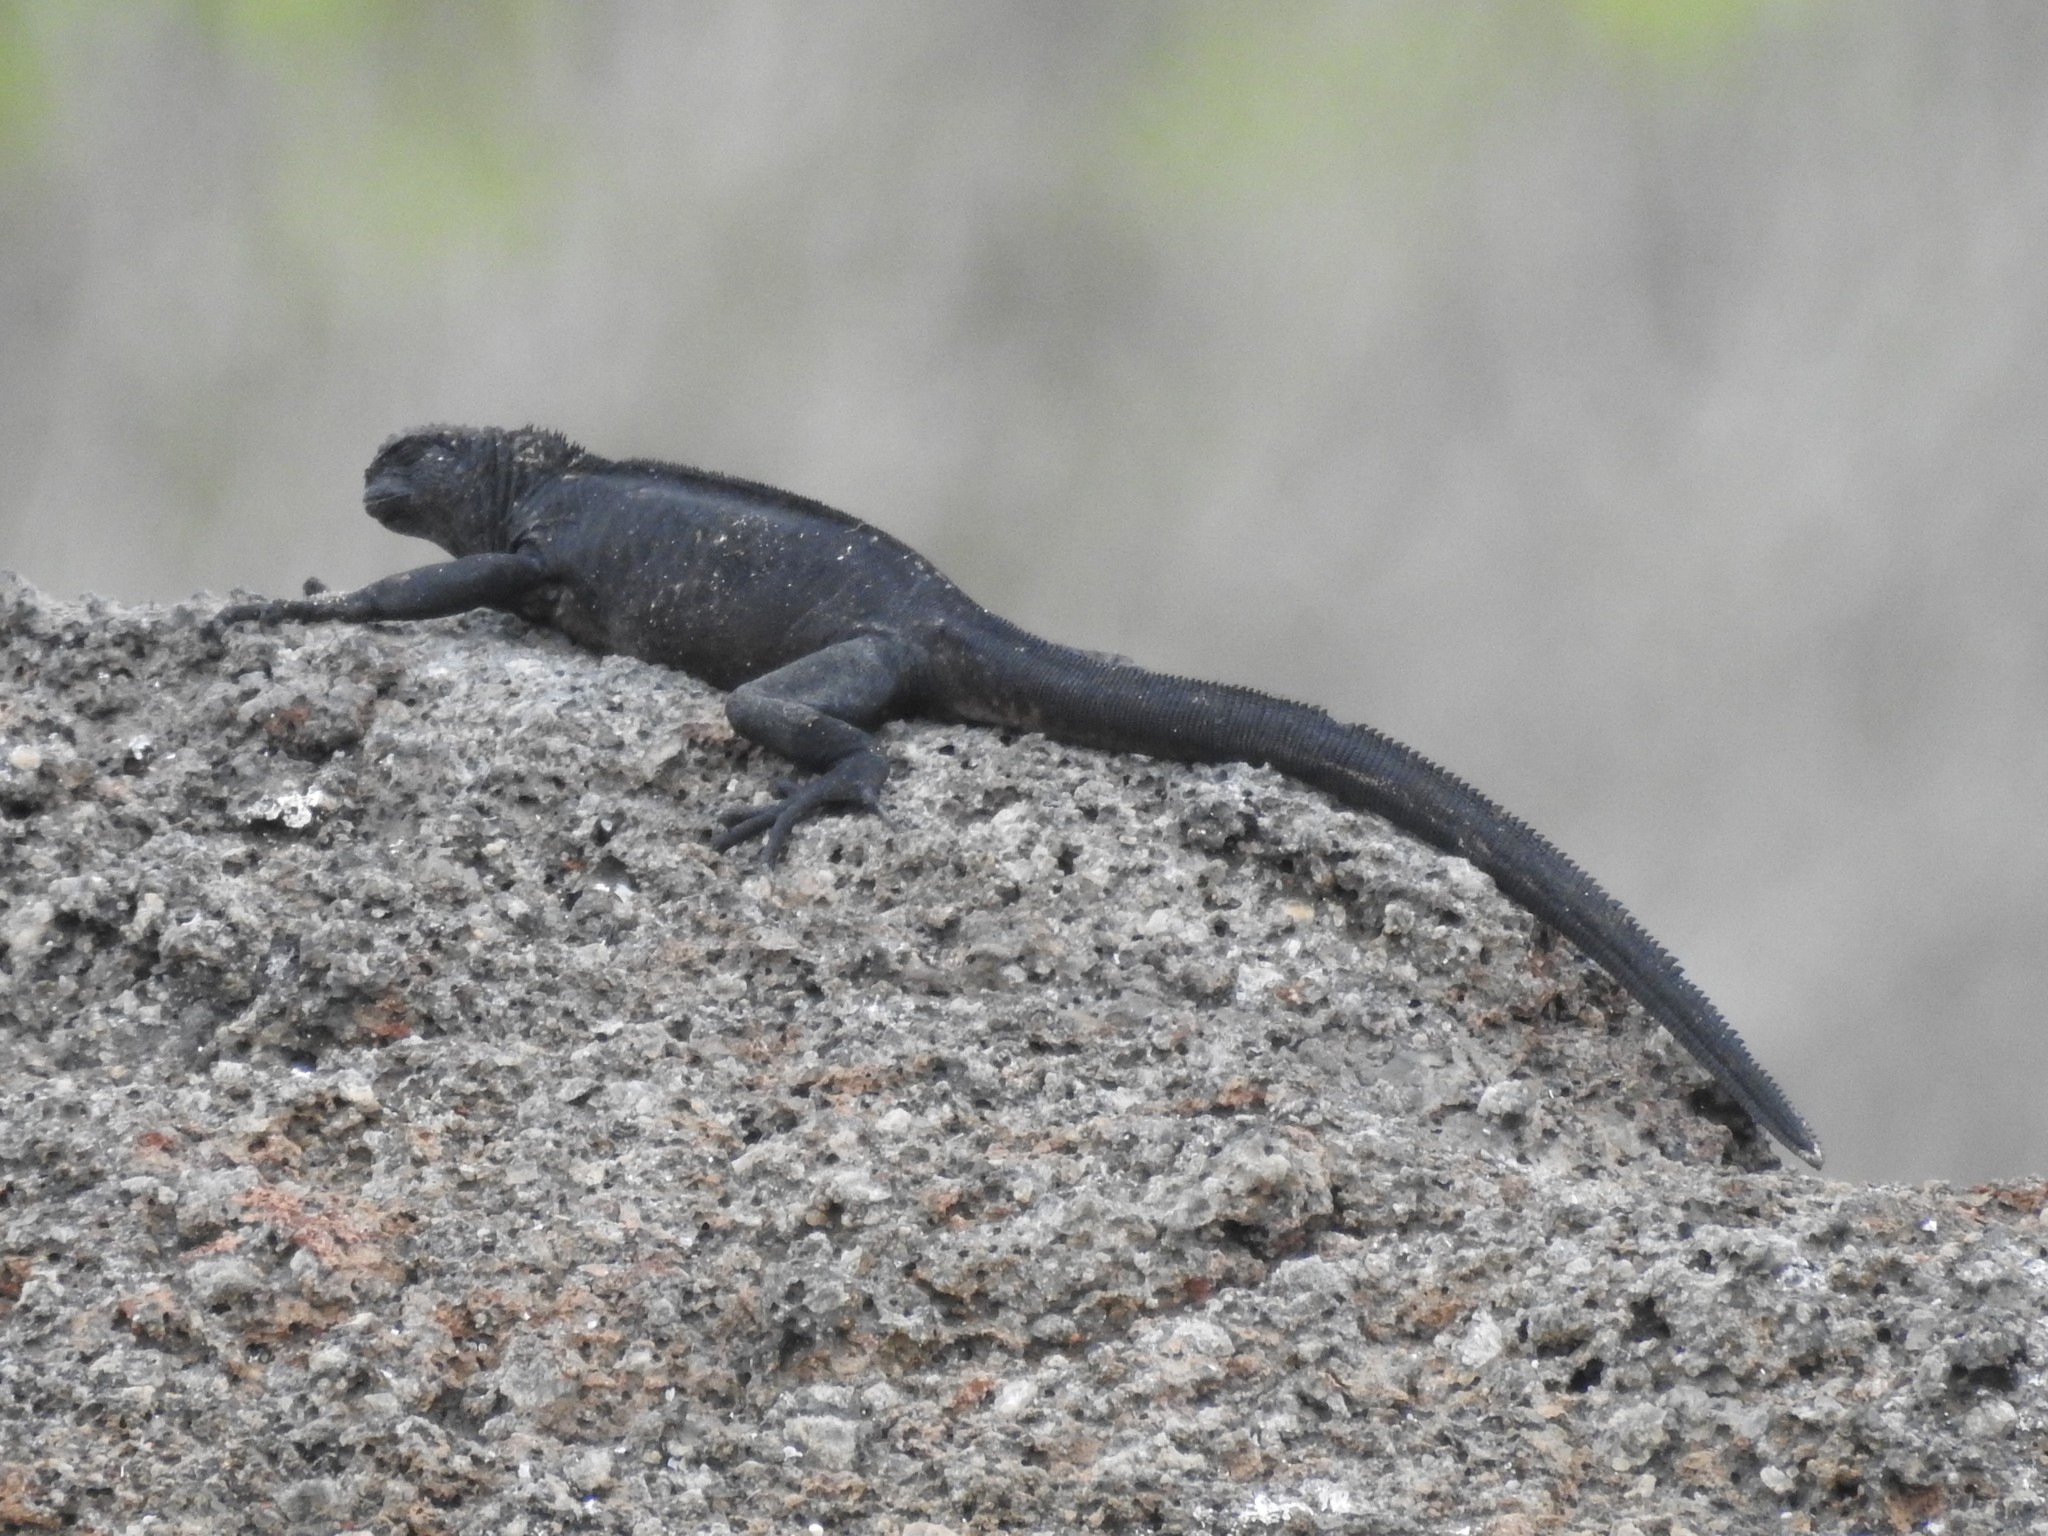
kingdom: Animalia
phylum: Chordata
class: Squamata
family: Iguanidae
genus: Amblyrhynchus
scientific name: Amblyrhynchus cristatus
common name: Marine iguana
